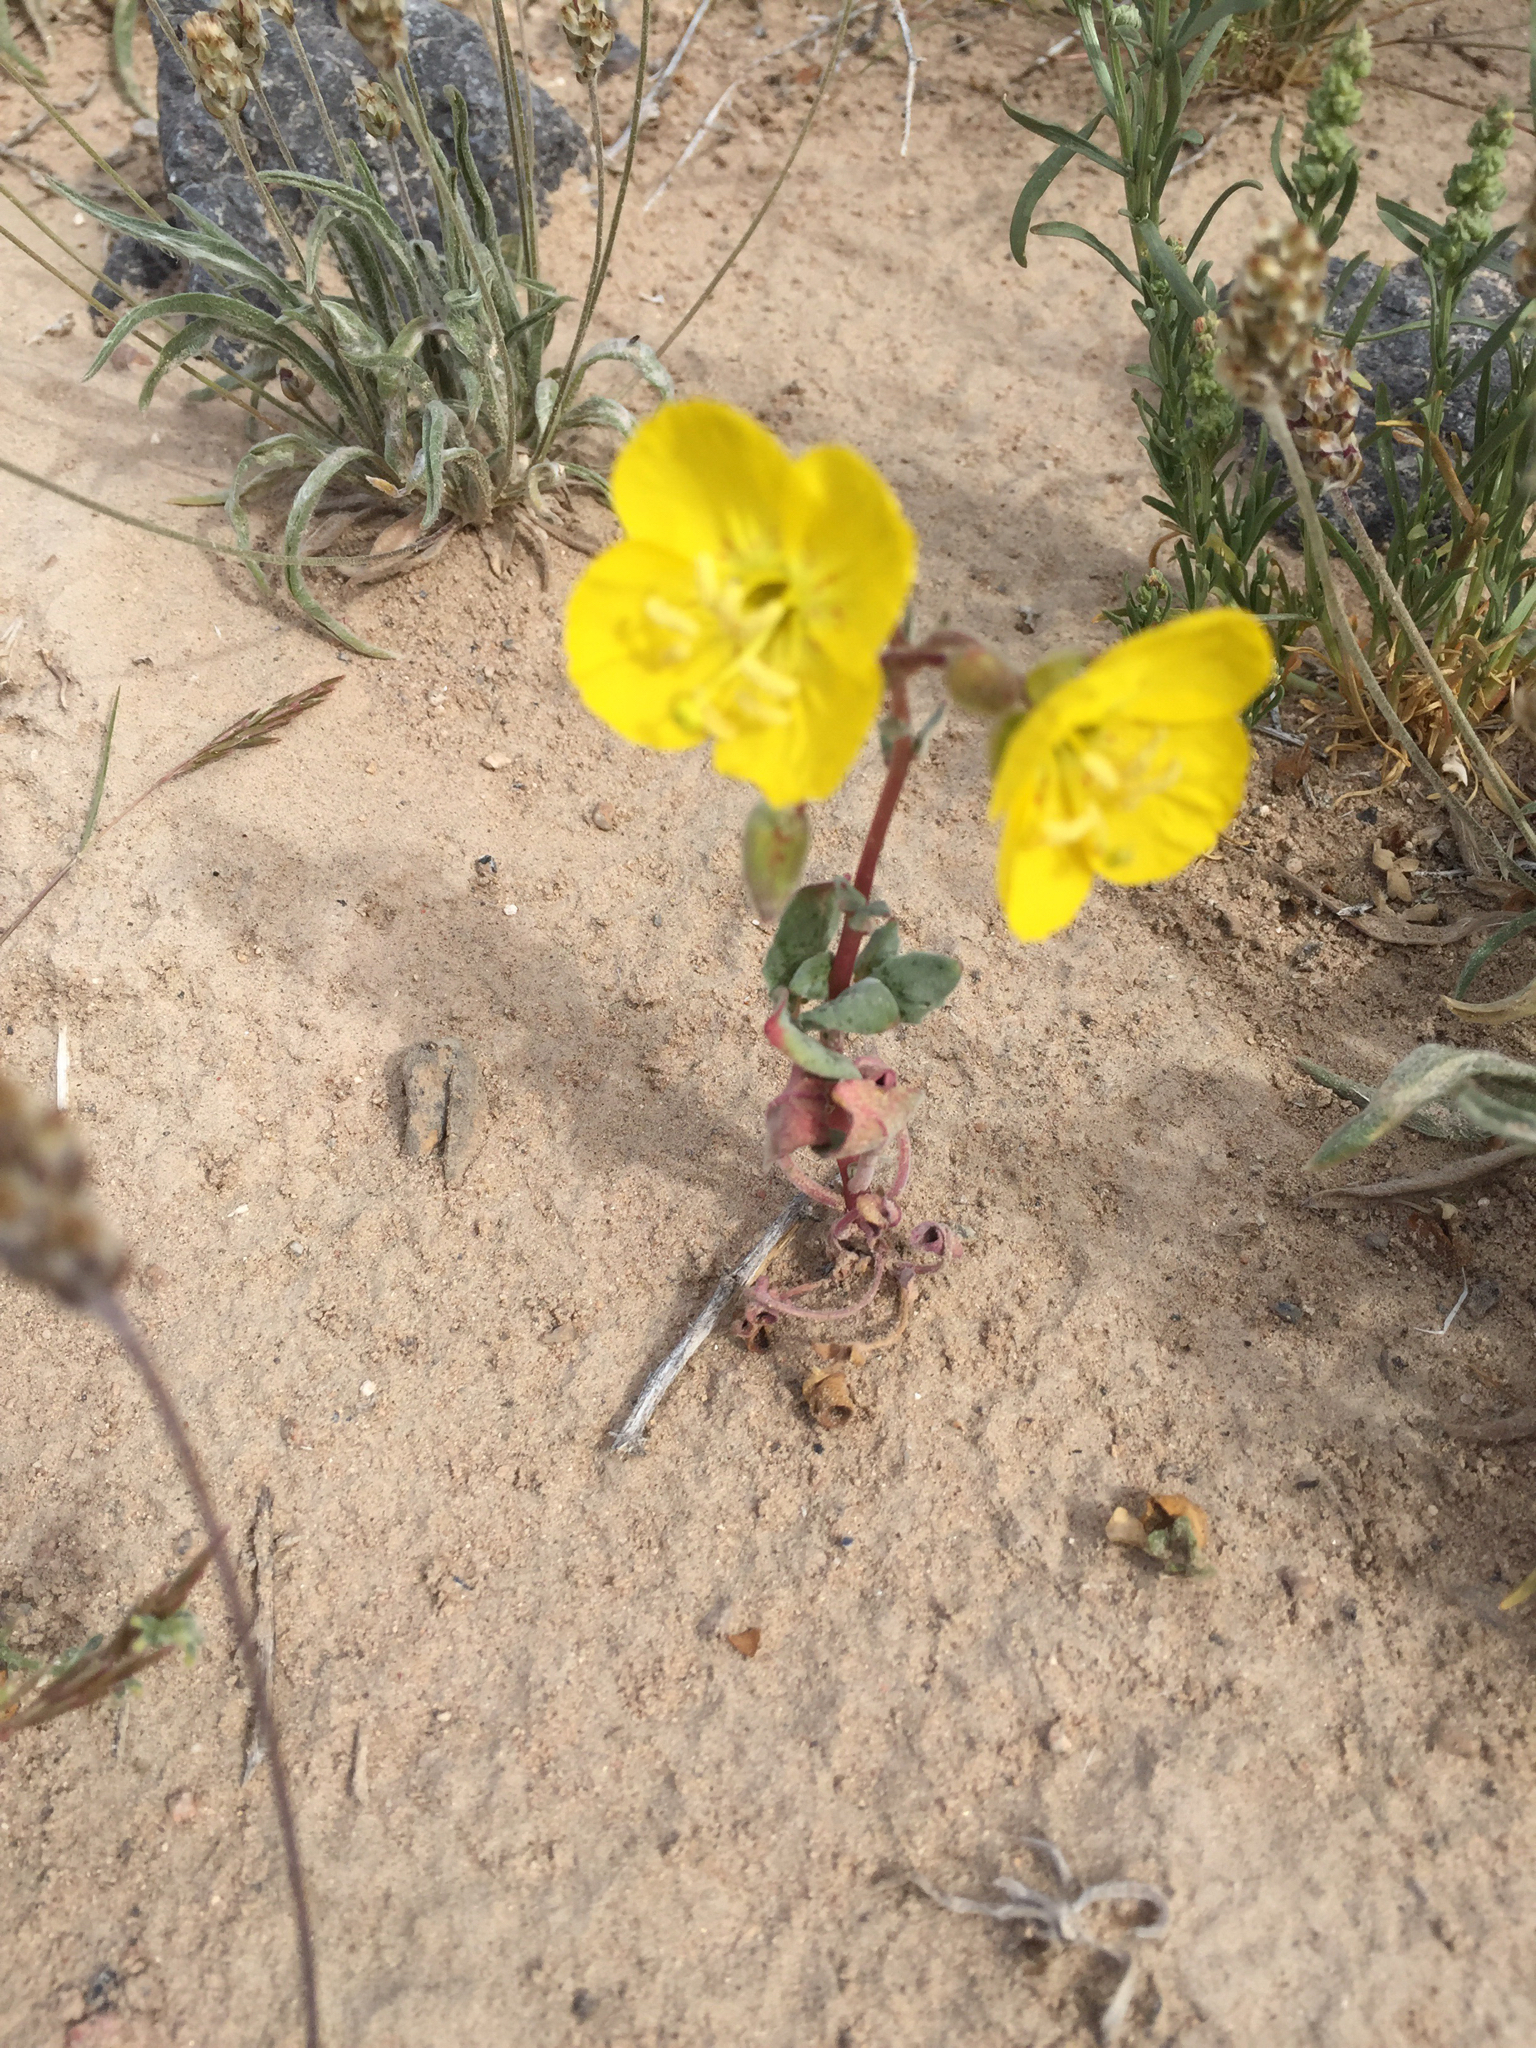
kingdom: Plantae
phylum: Tracheophyta
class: Magnoliopsida
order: Myrtales
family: Onagraceae
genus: Chylismia
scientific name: Chylismia brevipes
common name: Yellow cups
